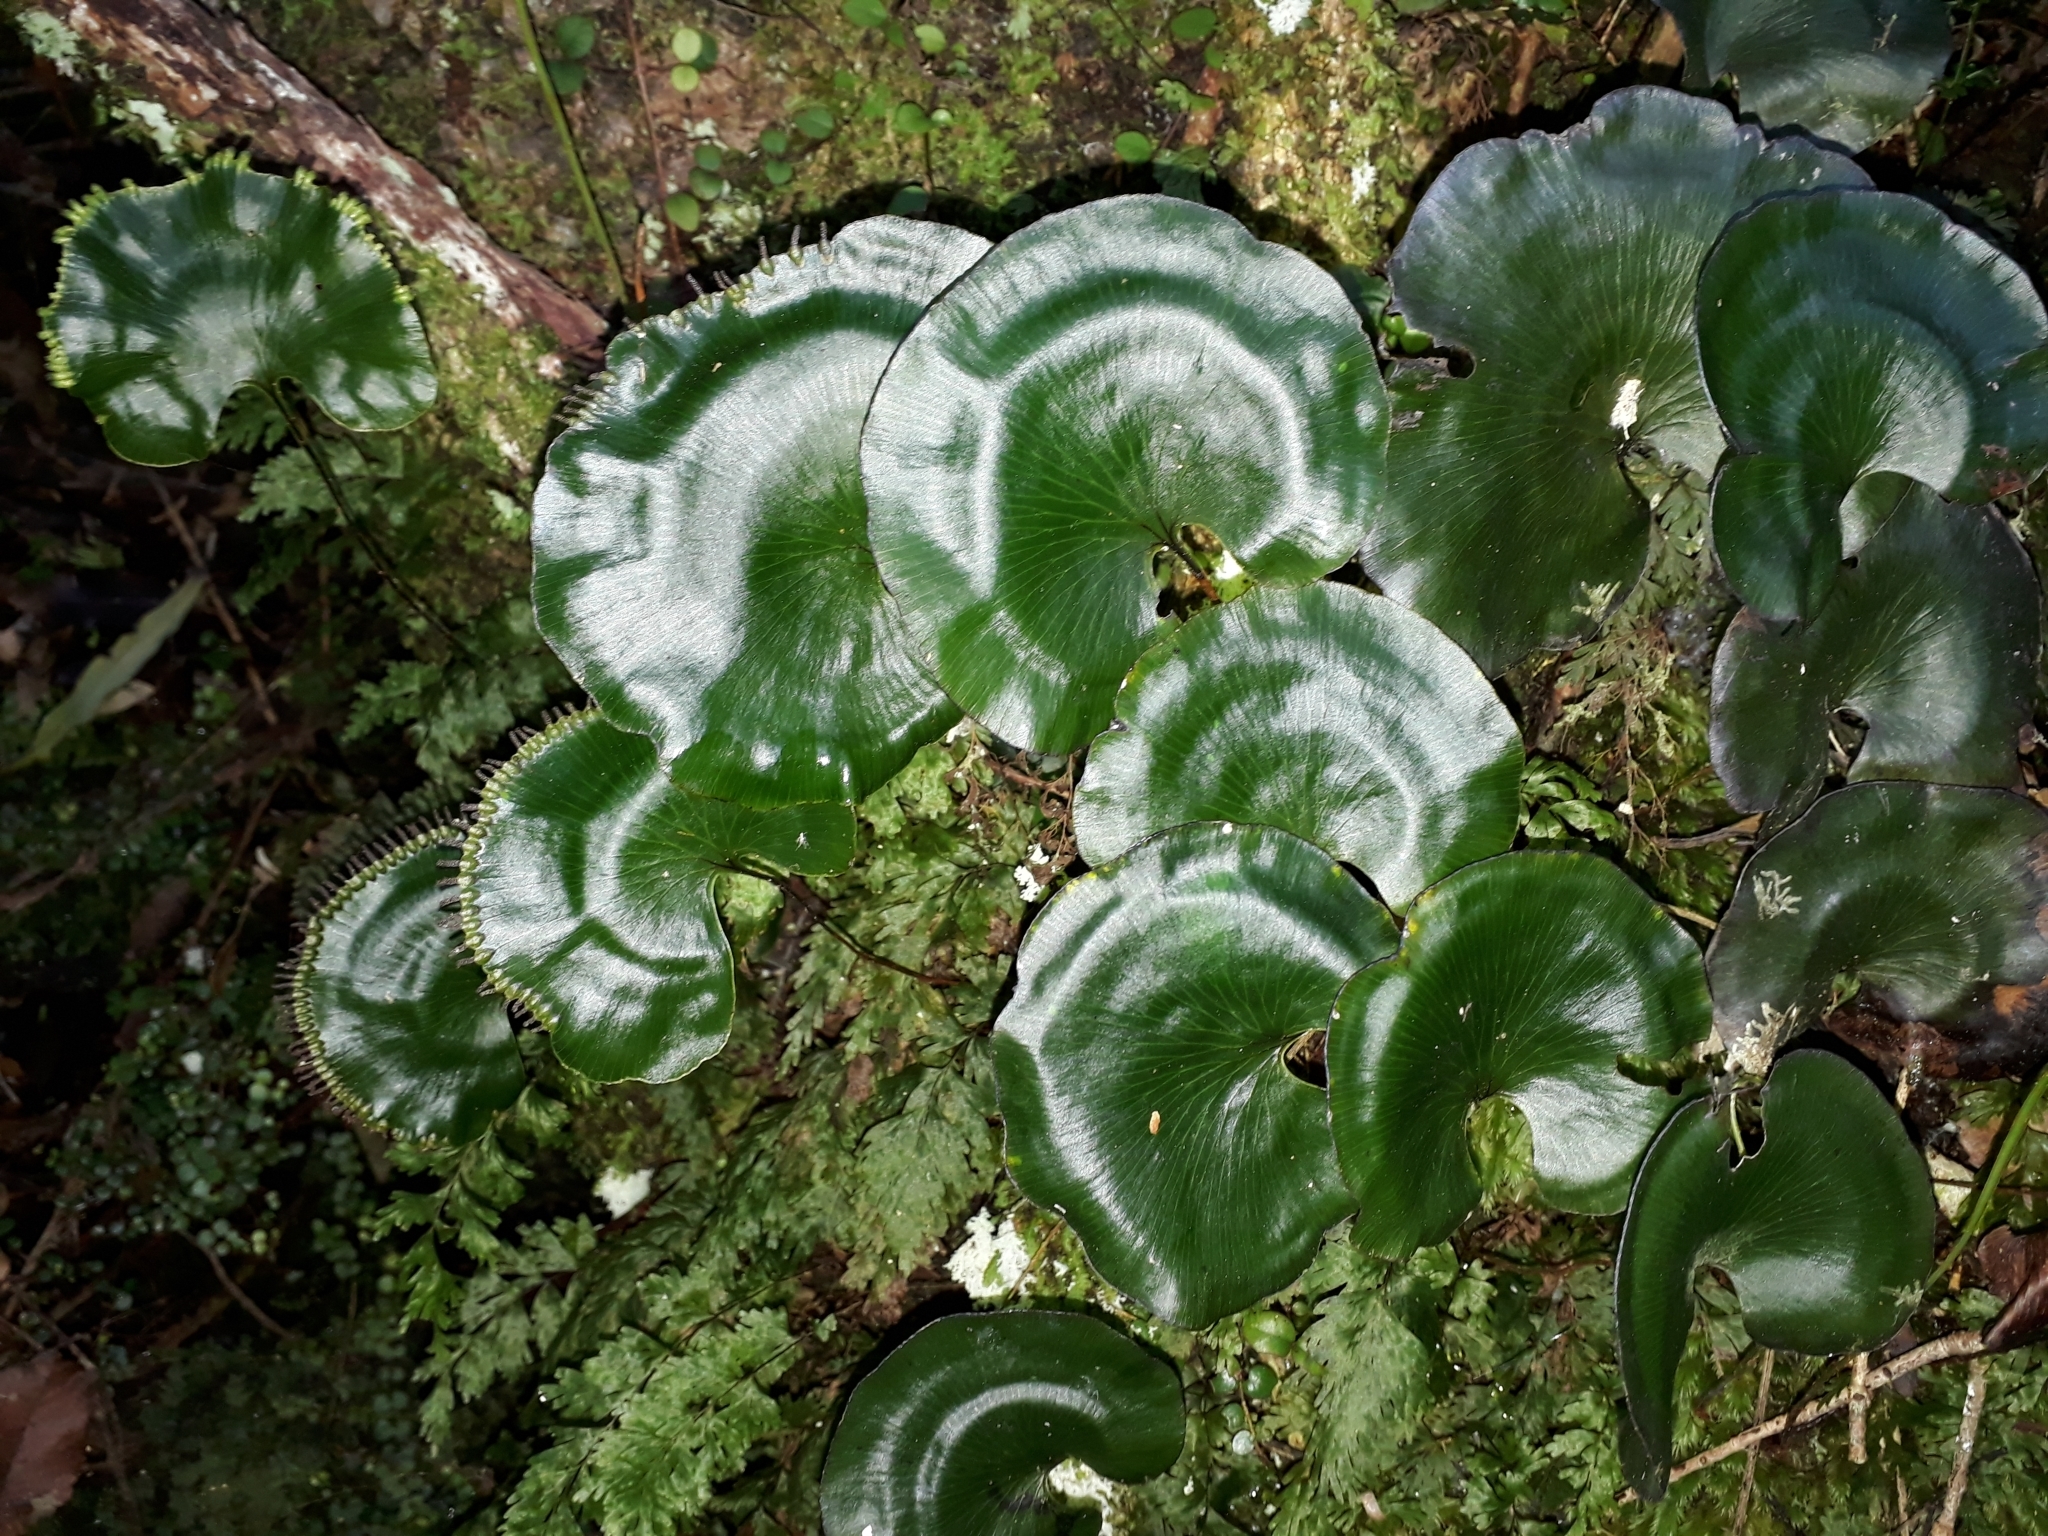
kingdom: Plantae
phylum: Tracheophyta
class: Polypodiopsida
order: Hymenophyllales
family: Hymenophyllaceae
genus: Hymenophyllum
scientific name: Hymenophyllum nephrophyllum
